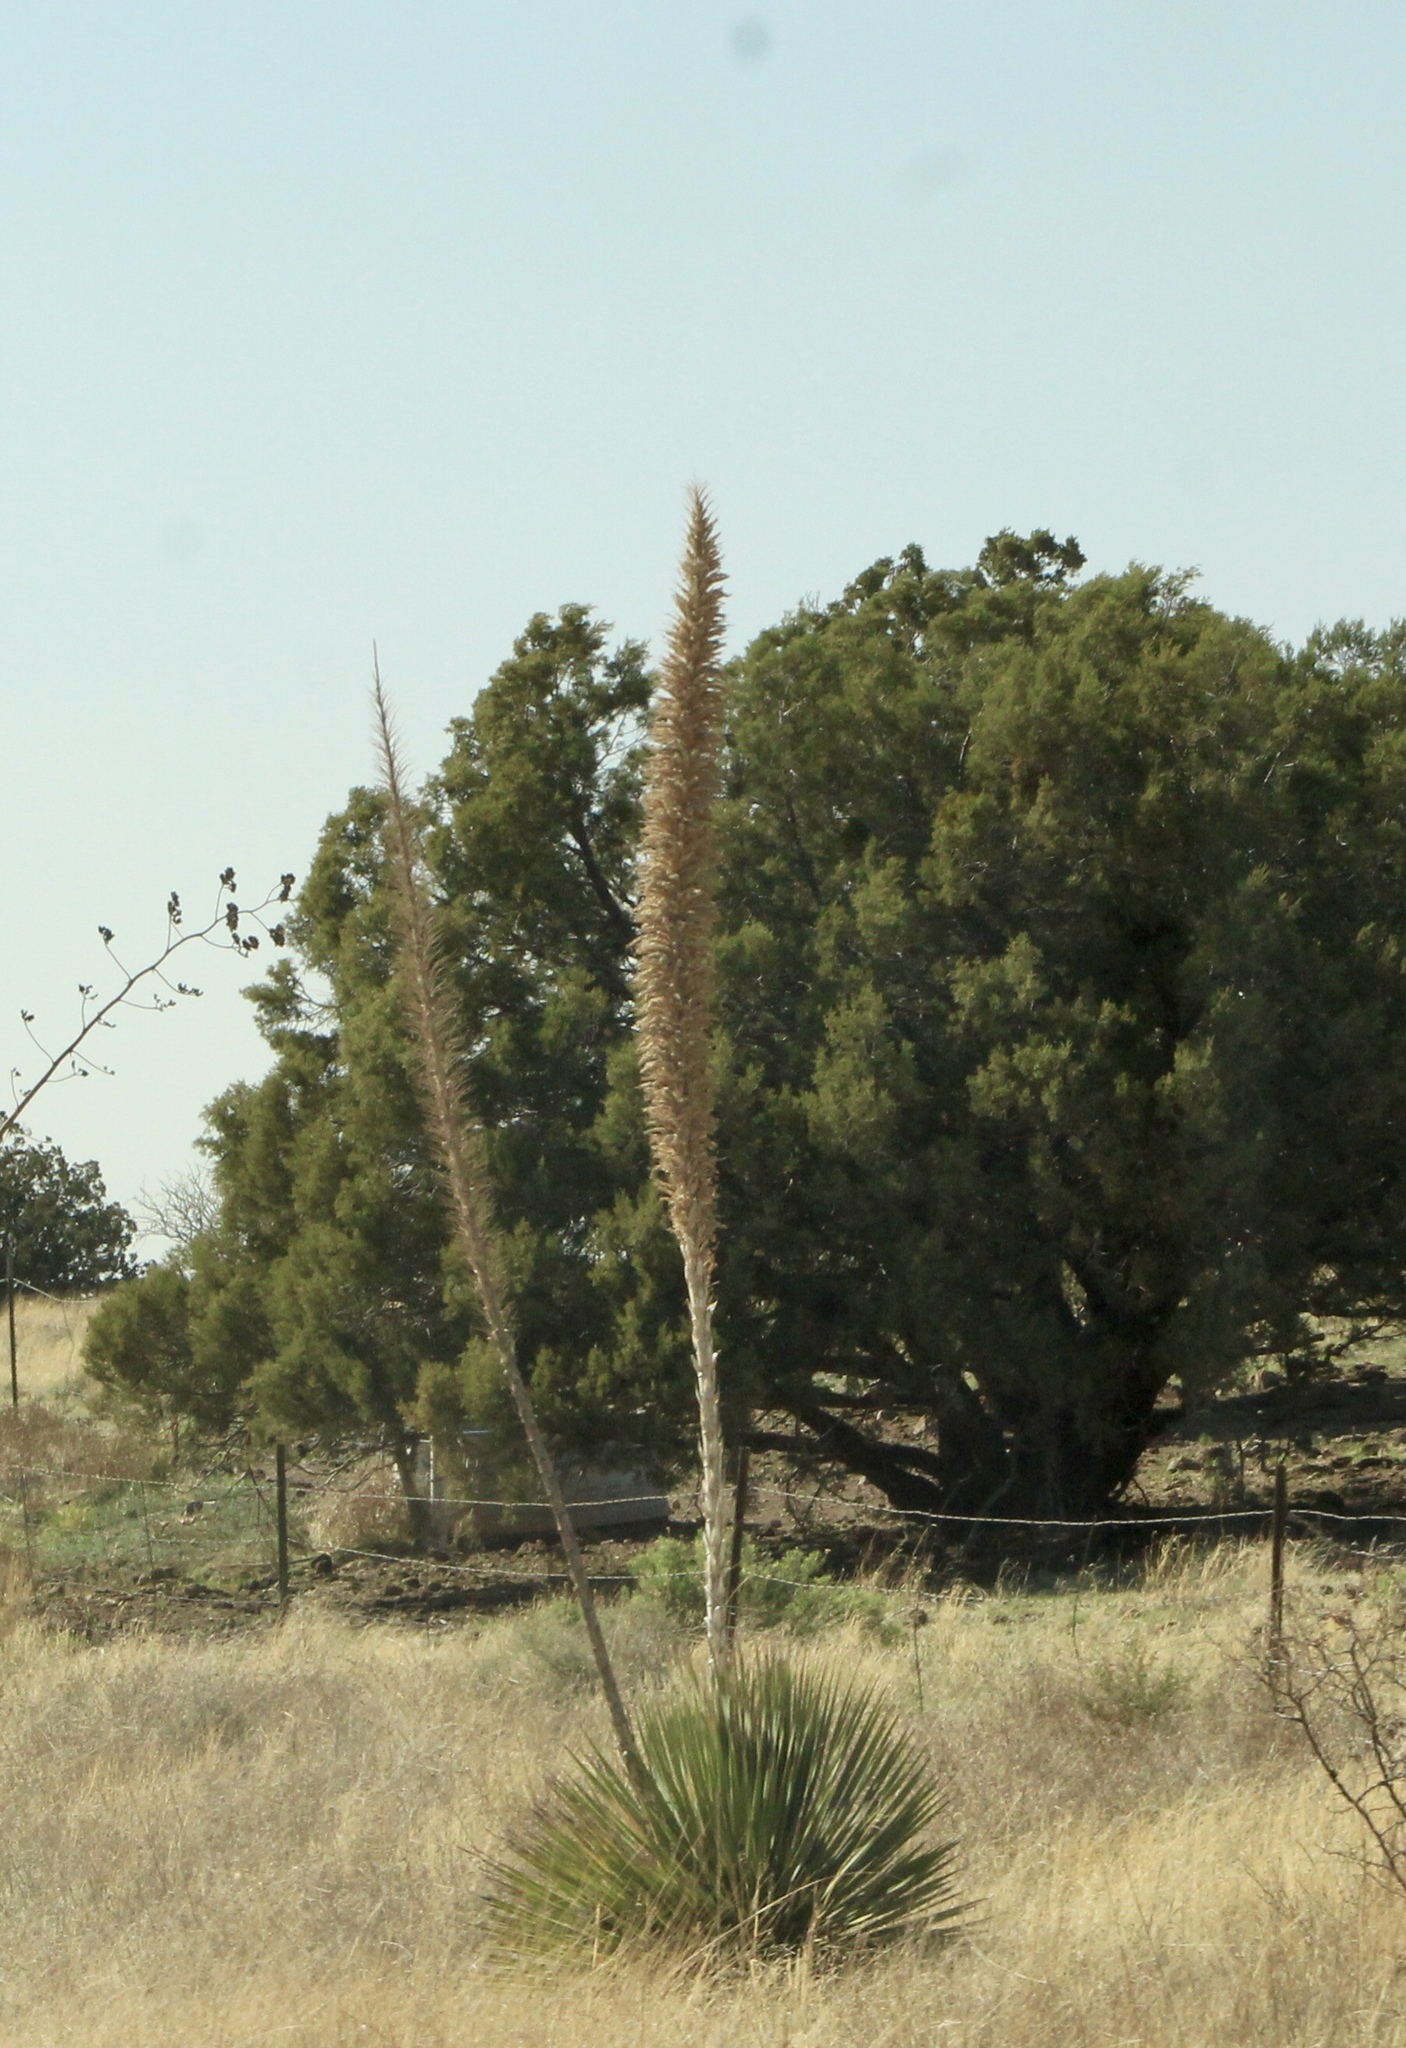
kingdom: Plantae
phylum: Tracheophyta
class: Liliopsida
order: Asparagales
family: Asparagaceae
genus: Dasylirion
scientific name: Dasylirion wheeleri
